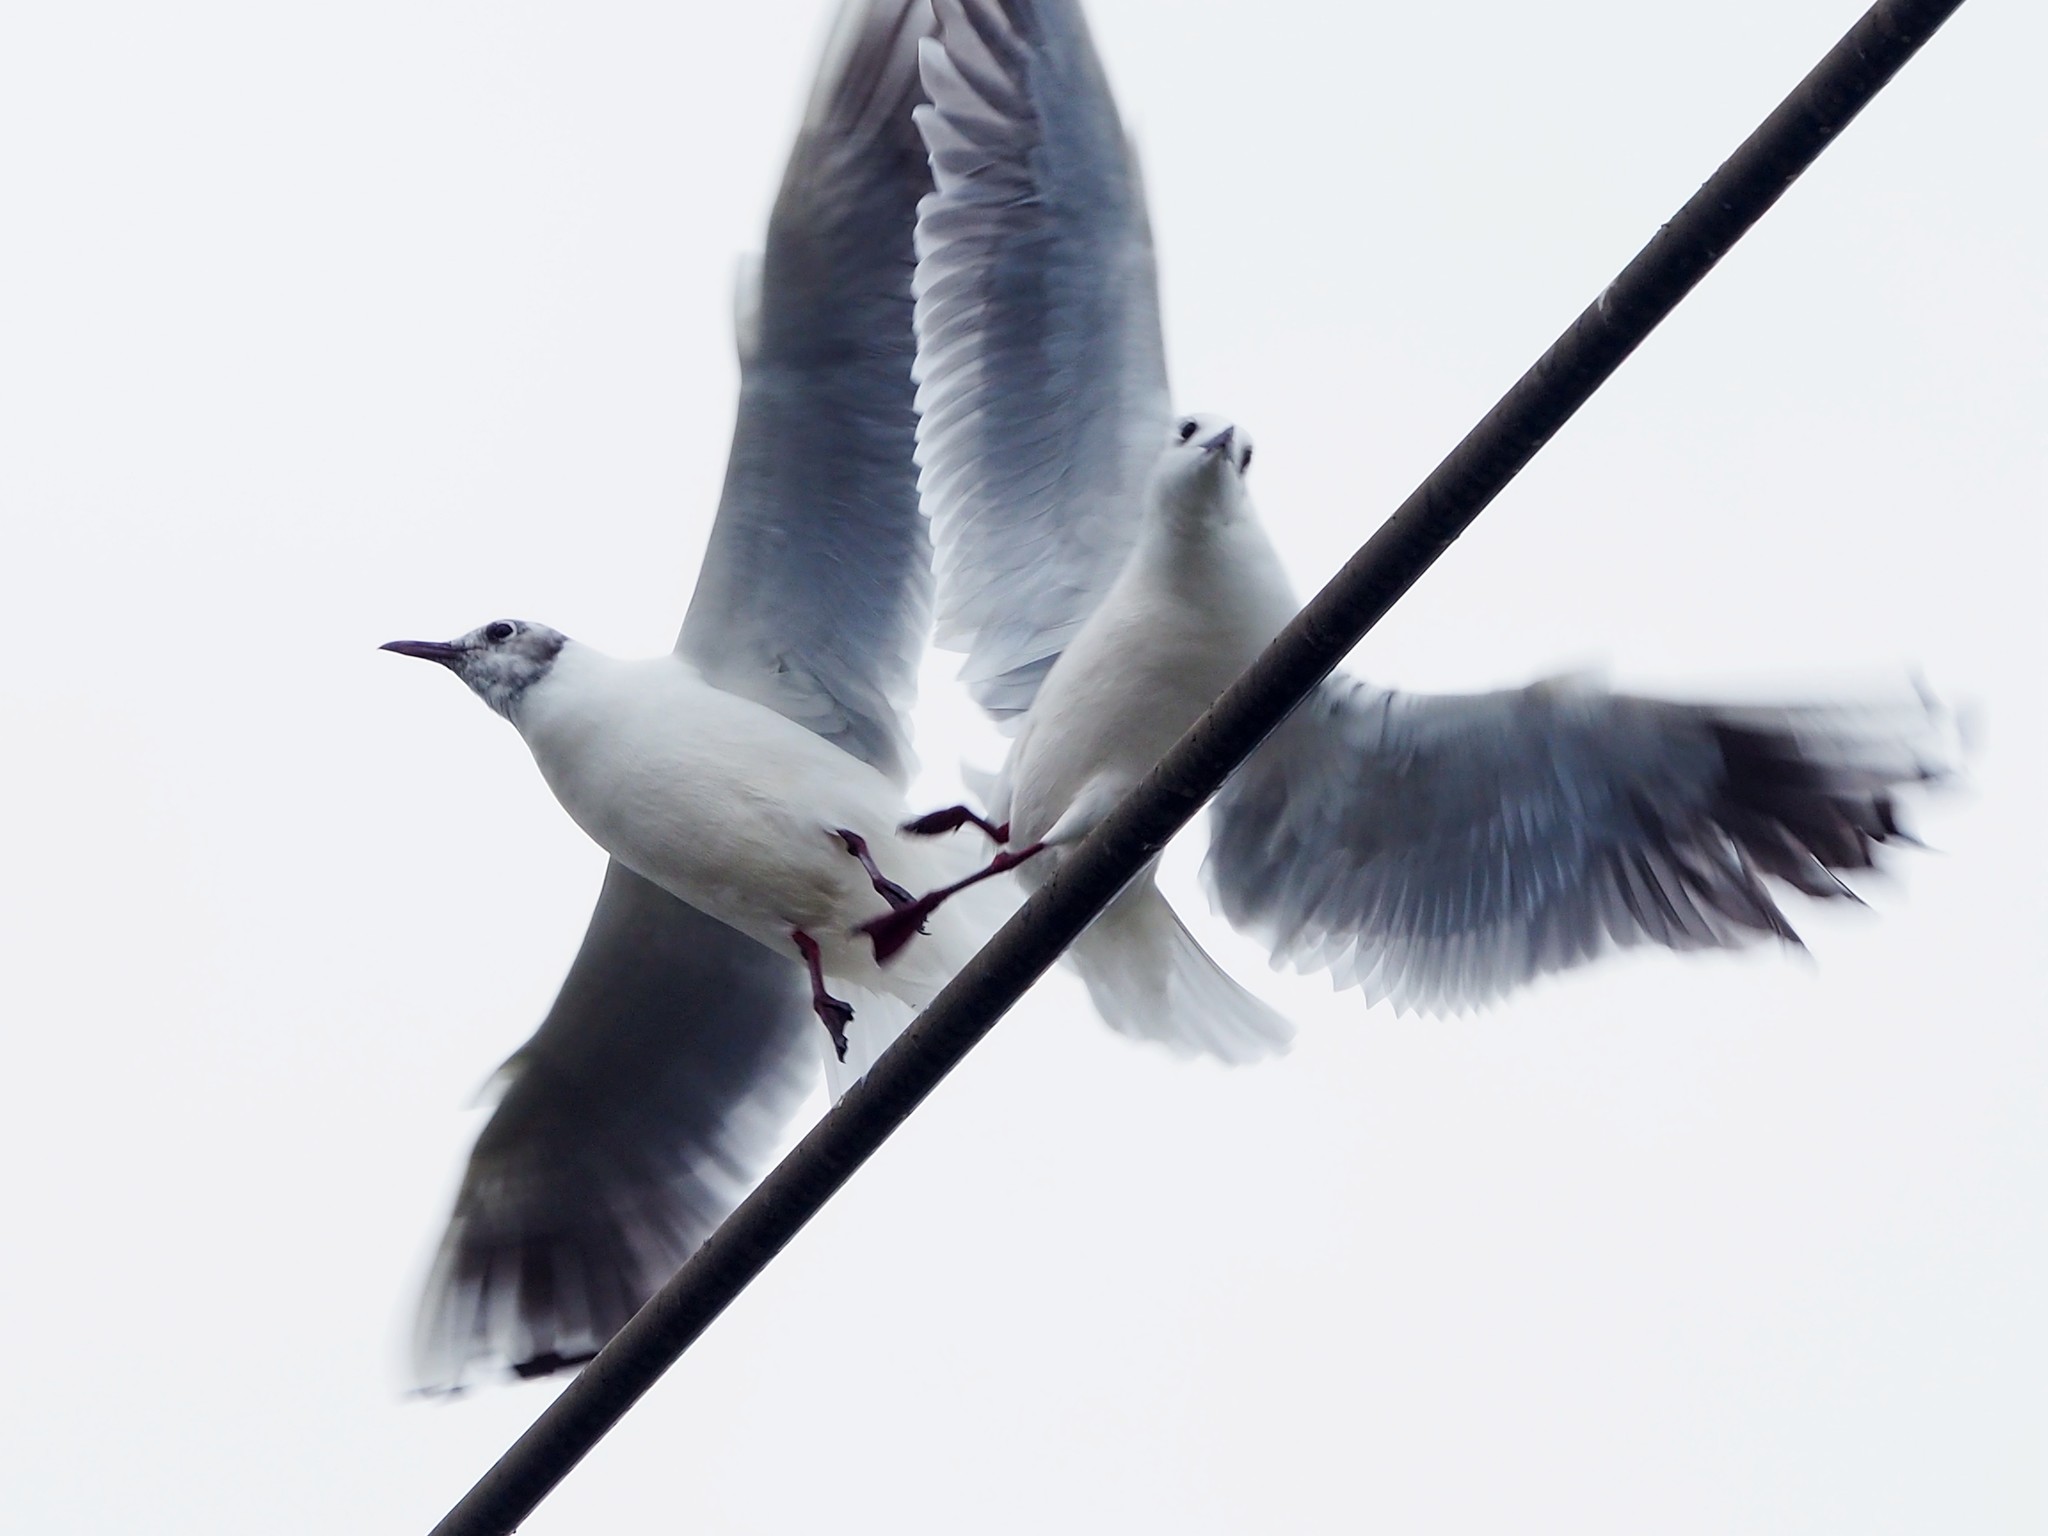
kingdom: Animalia
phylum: Chordata
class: Aves
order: Charadriiformes
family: Laridae
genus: Chroicocephalus
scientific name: Chroicocephalus ridibundus
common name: Black-headed gull
